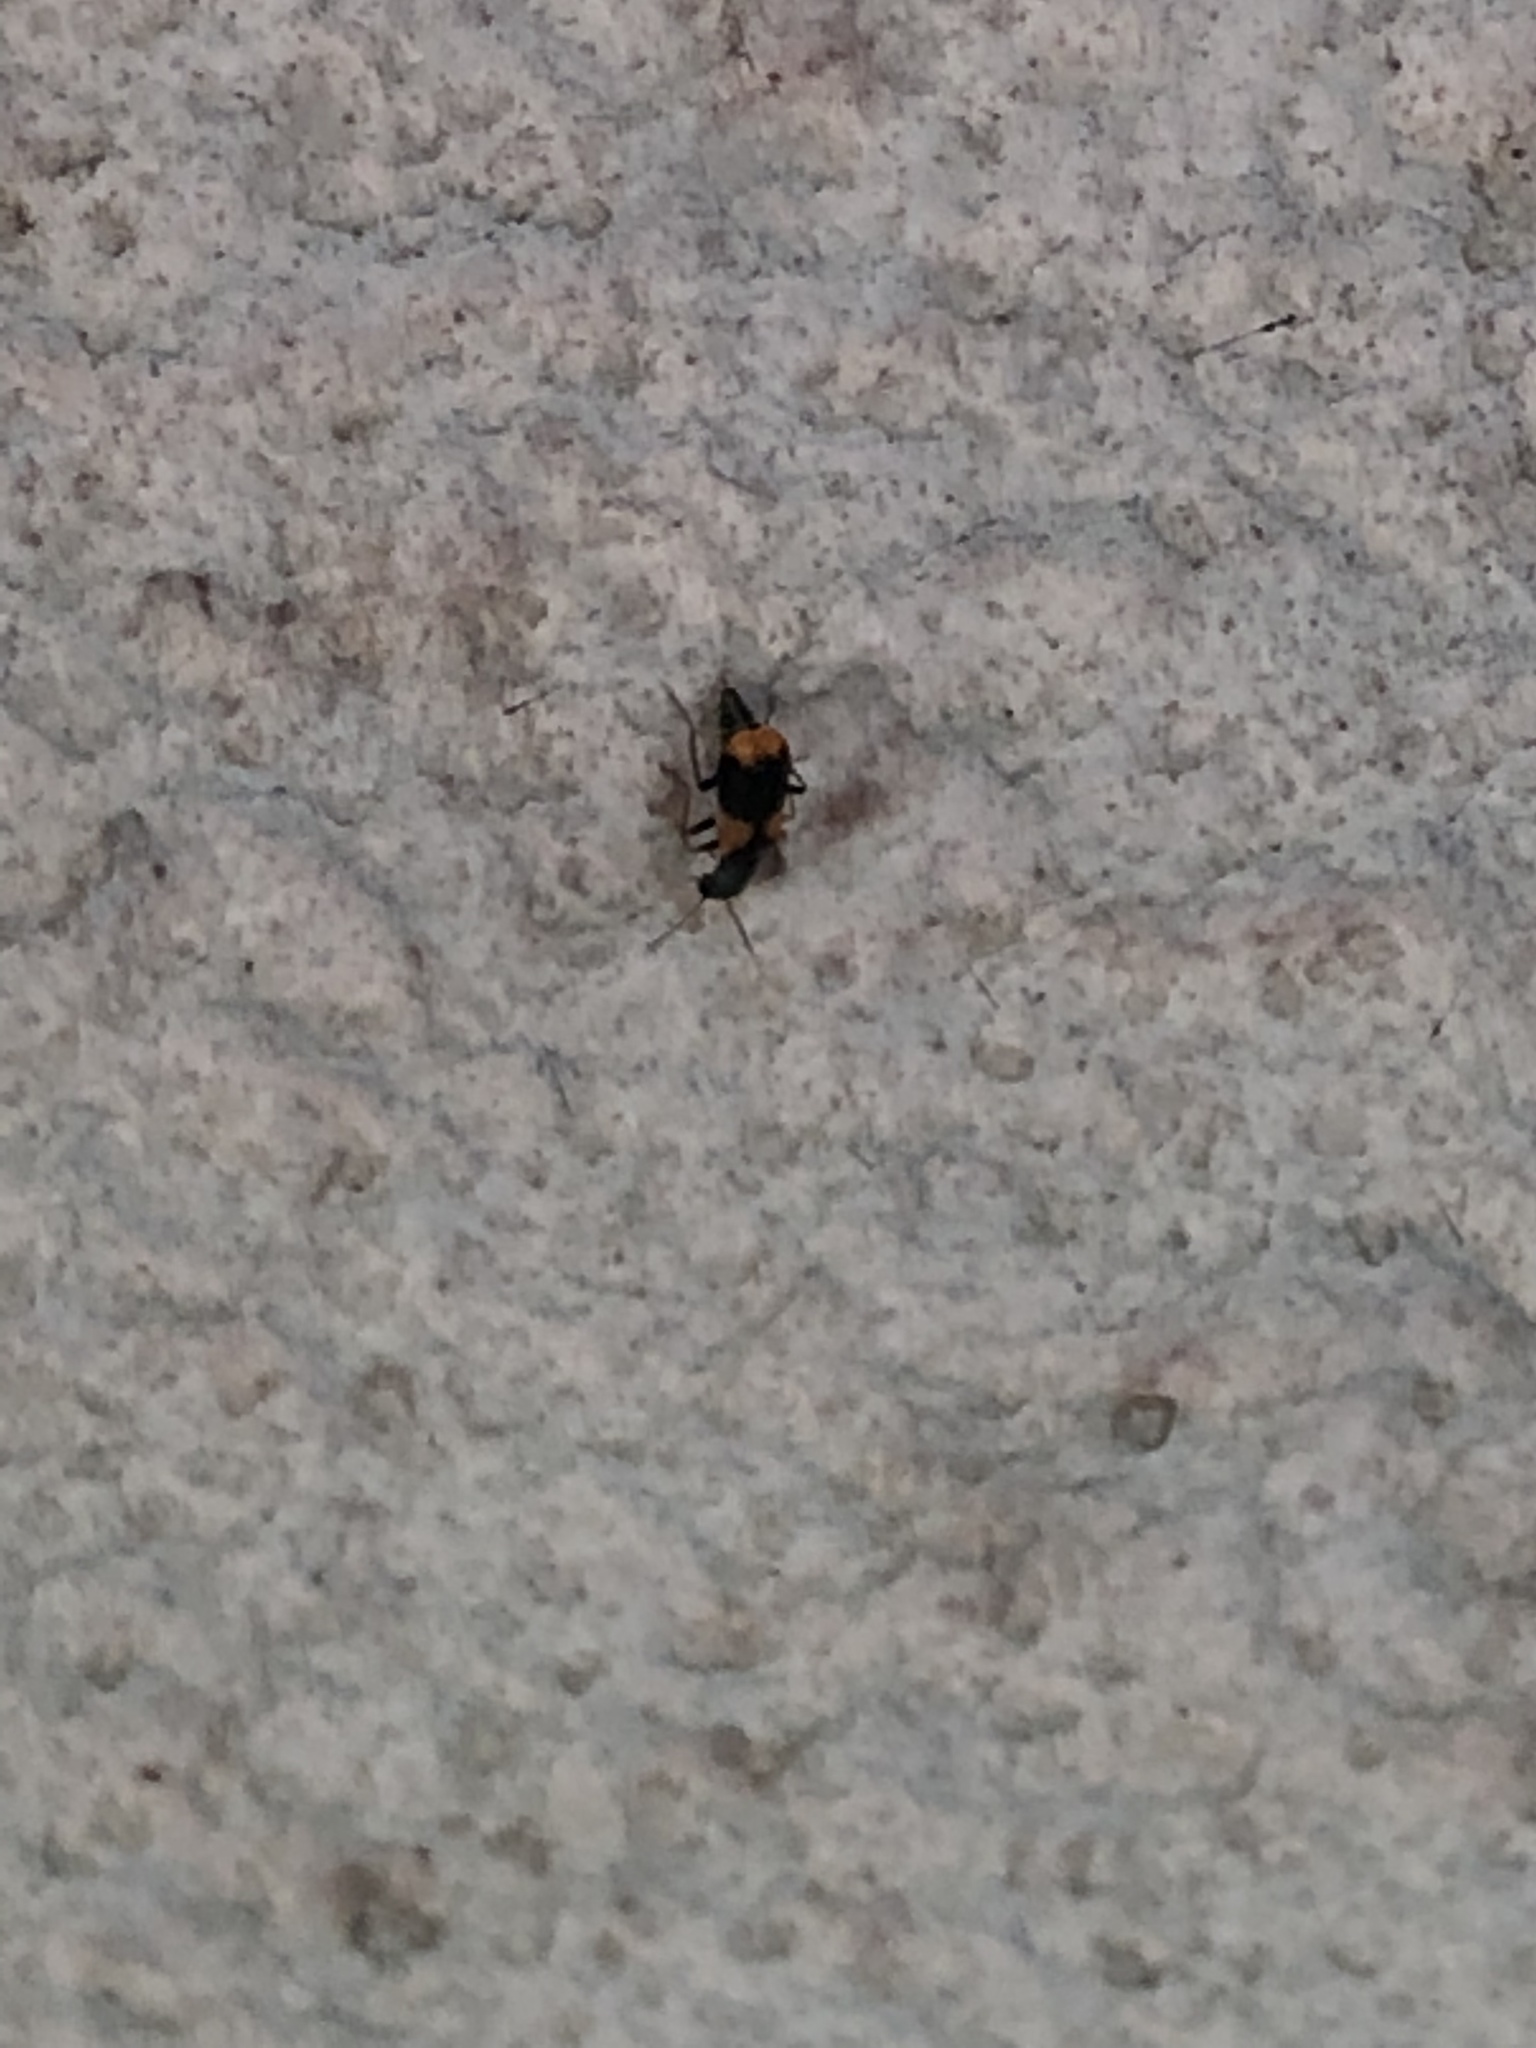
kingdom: Animalia
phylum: Arthropoda
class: Insecta
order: Coleoptera
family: Melyridae
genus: Anthocomus
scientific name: Anthocomus fasciatus
